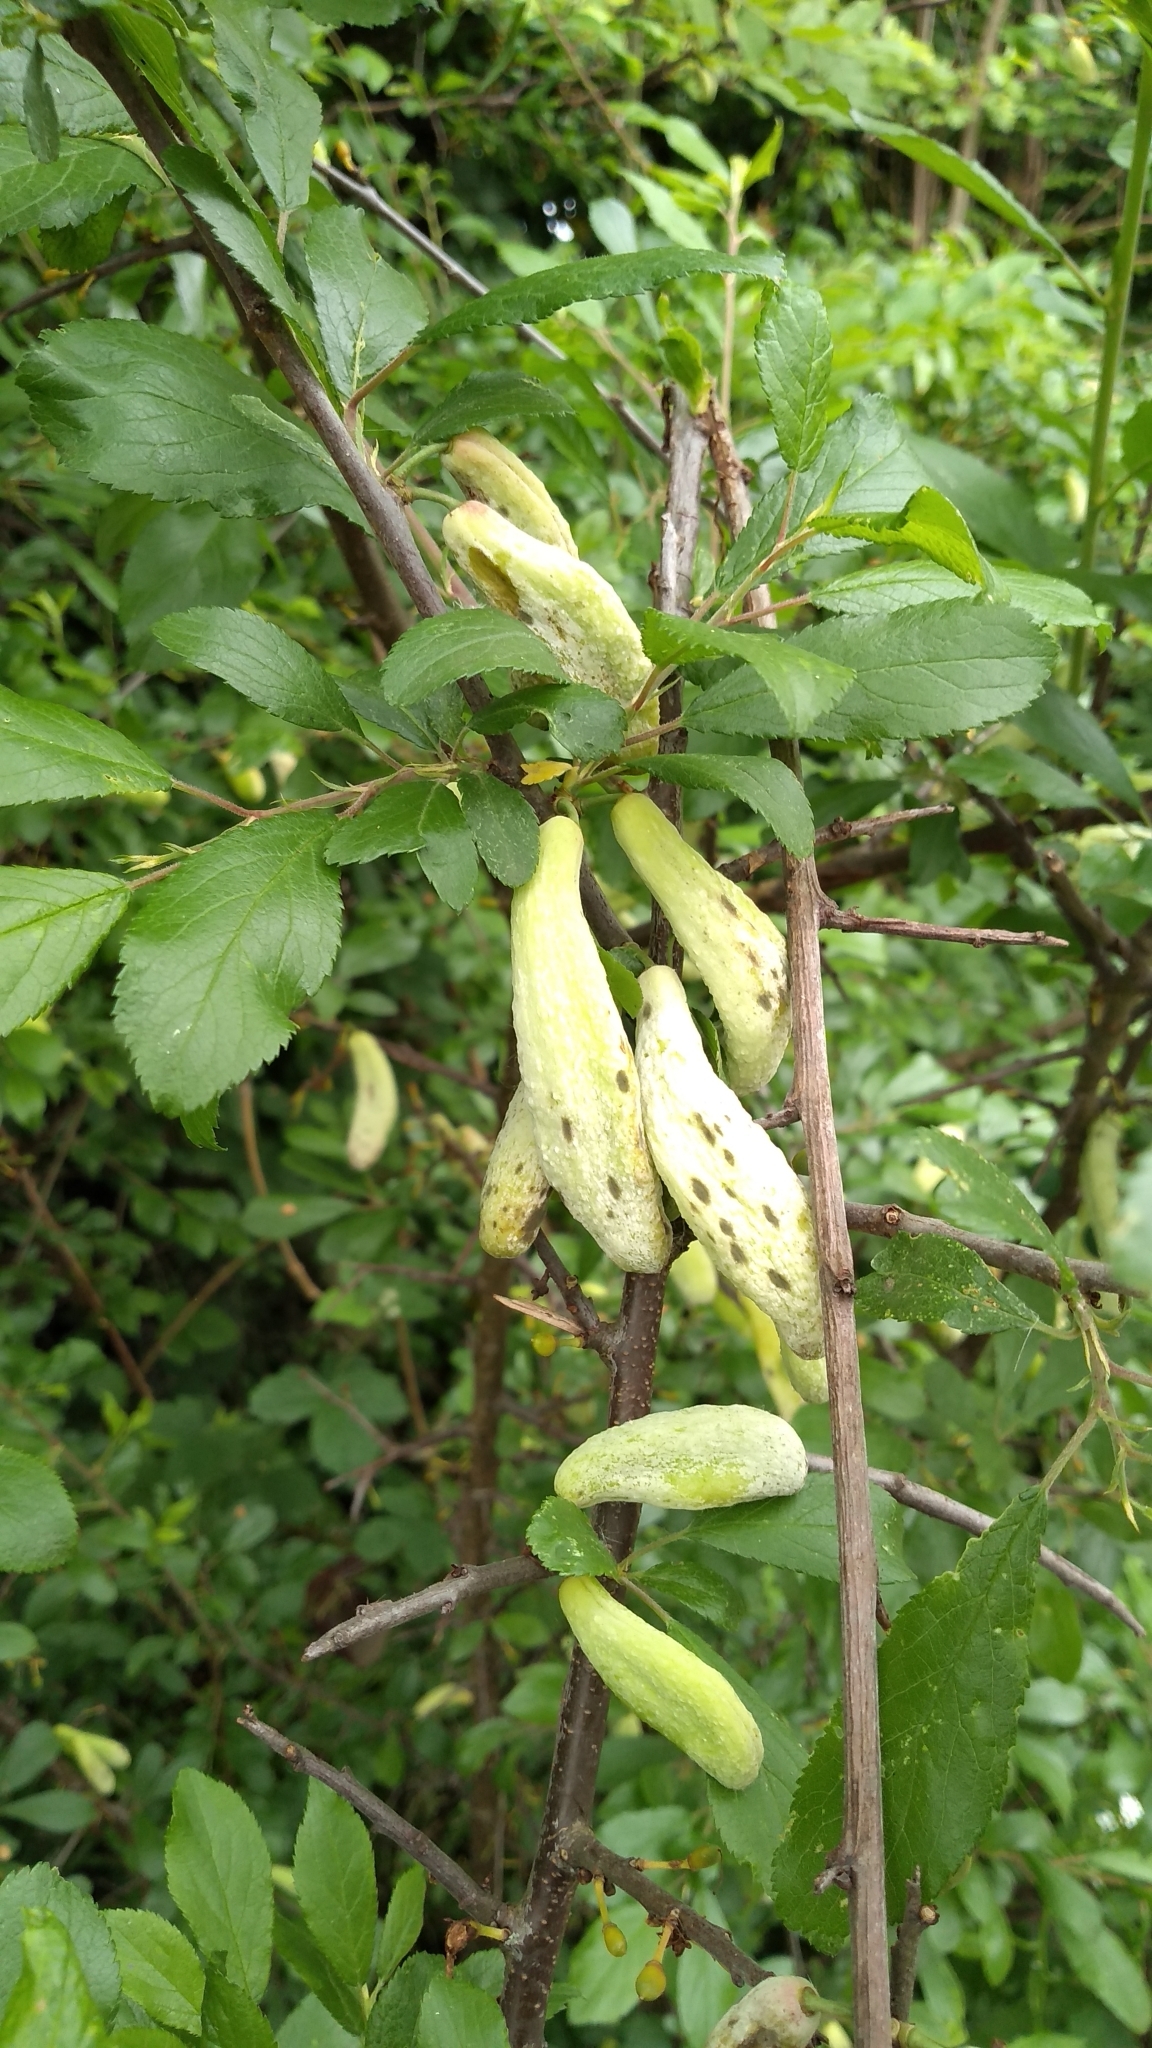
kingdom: Fungi
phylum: Ascomycota
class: Taphrinomycetes
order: Taphrinales
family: Taphrinaceae
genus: Taphrina
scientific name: Taphrina pruni
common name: Pocket plum
